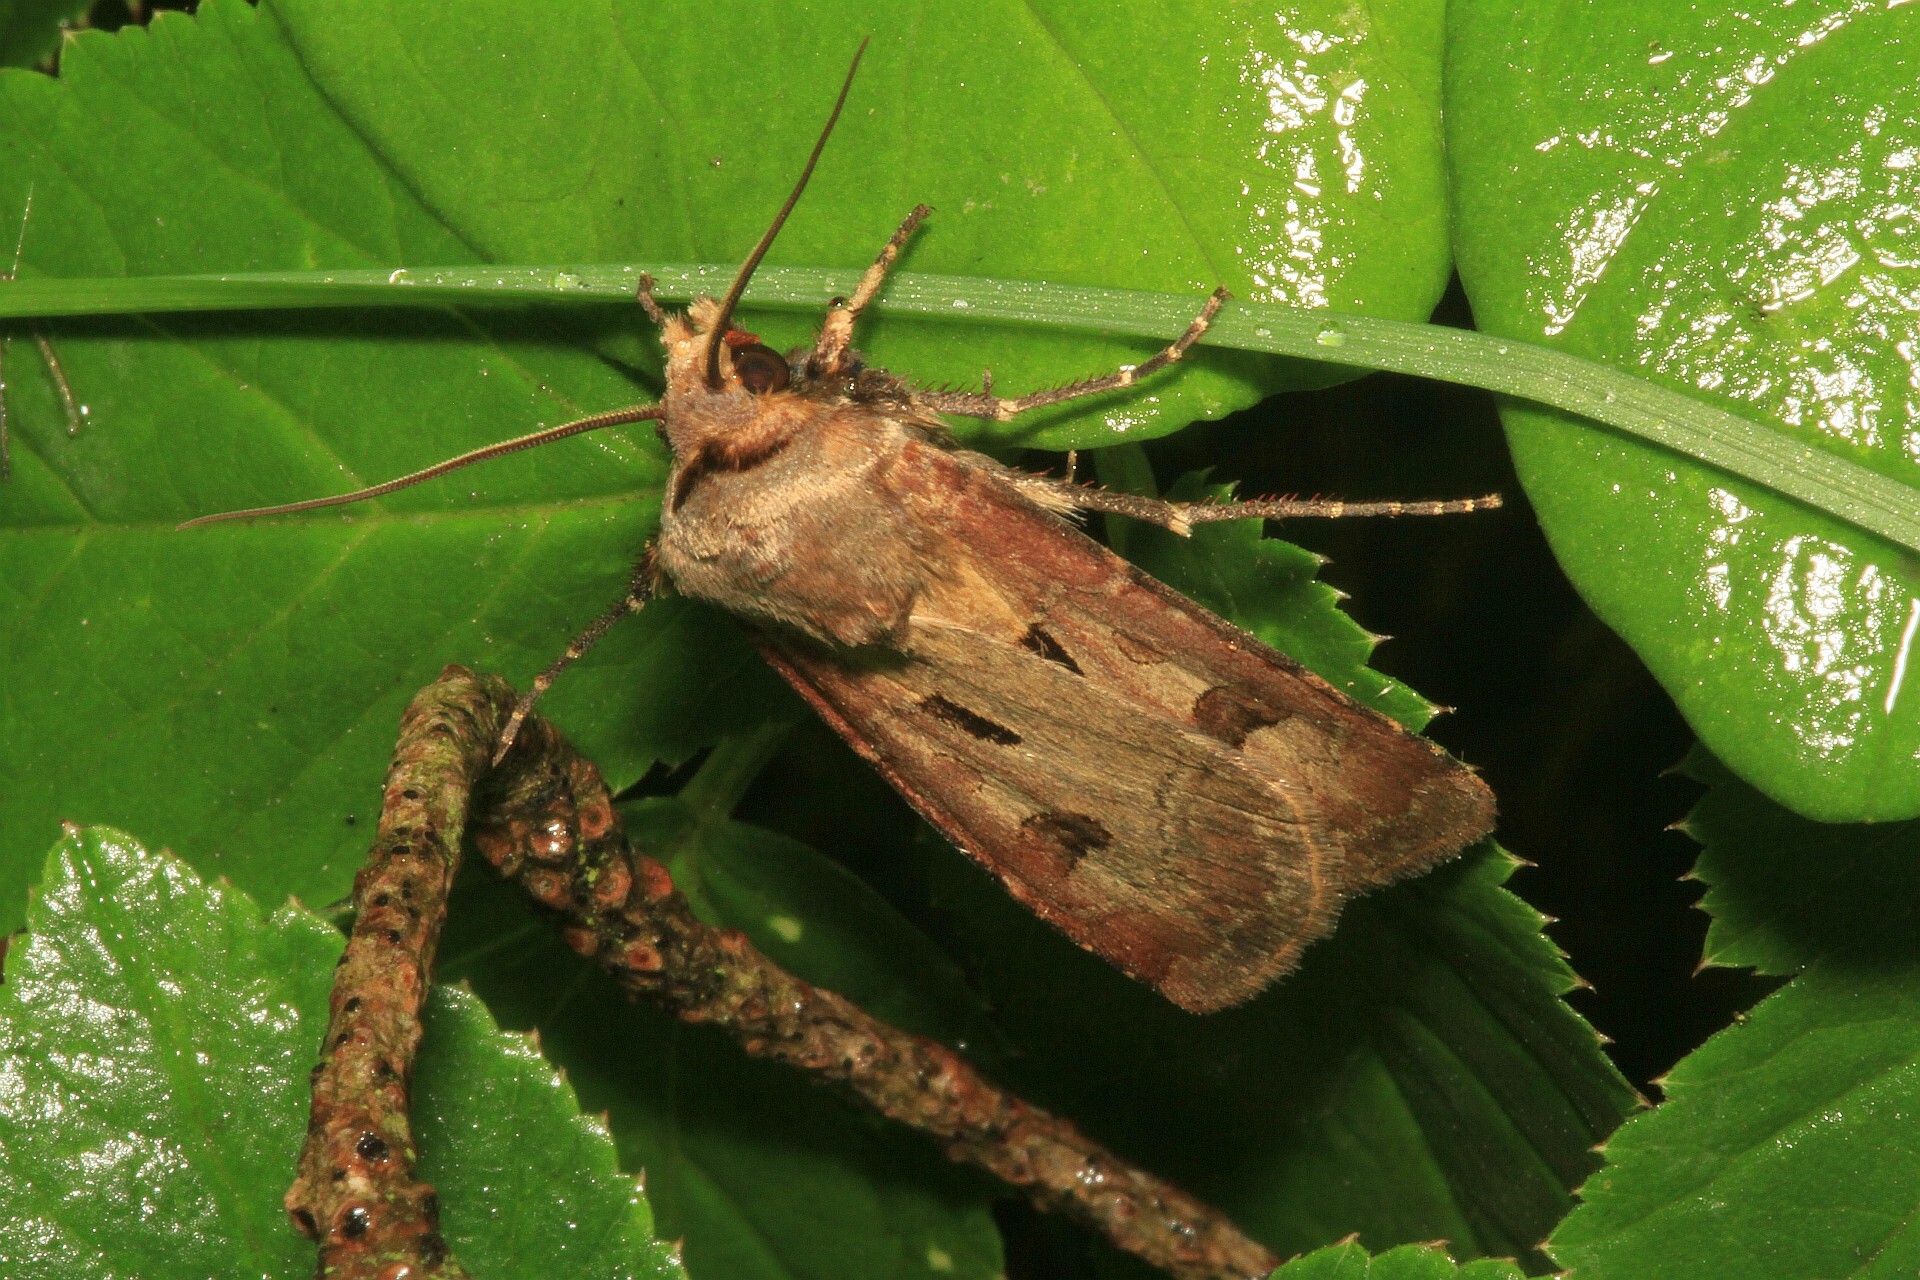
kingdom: Animalia
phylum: Arthropoda
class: Insecta
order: Lepidoptera
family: Noctuidae
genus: Agrotis
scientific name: Agrotis exclamationis
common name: Heart and dart
